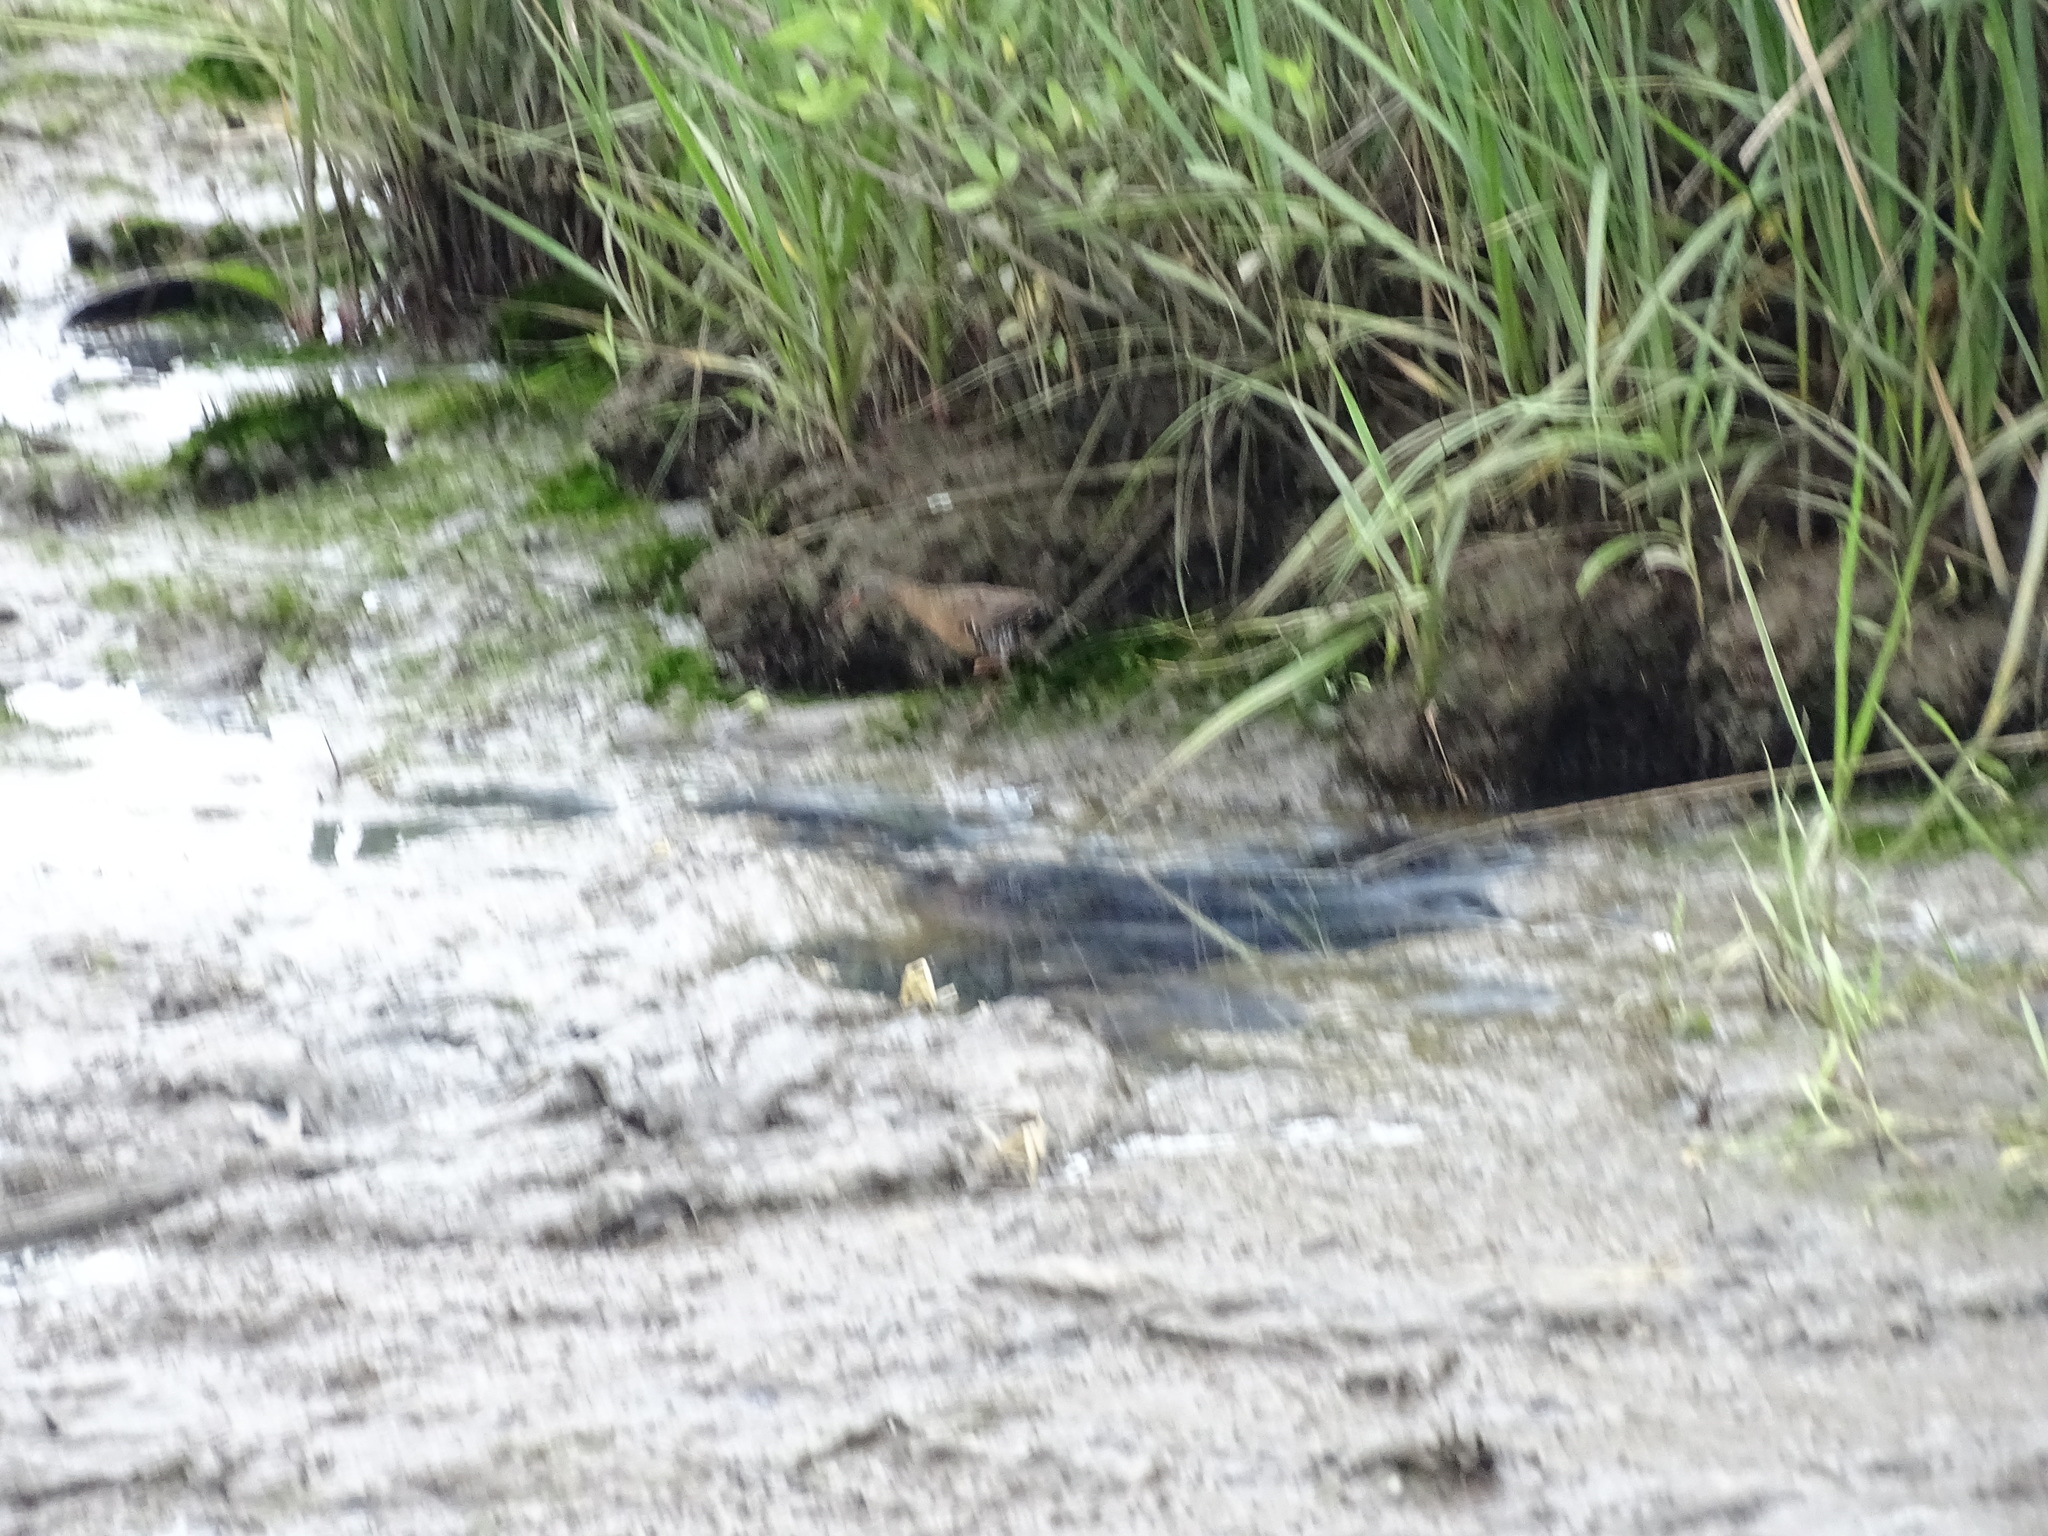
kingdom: Animalia
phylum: Chordata
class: Aves
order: Gruiformes
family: Rallidae
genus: Rallus
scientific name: Rallus limicola
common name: Virginia rail
